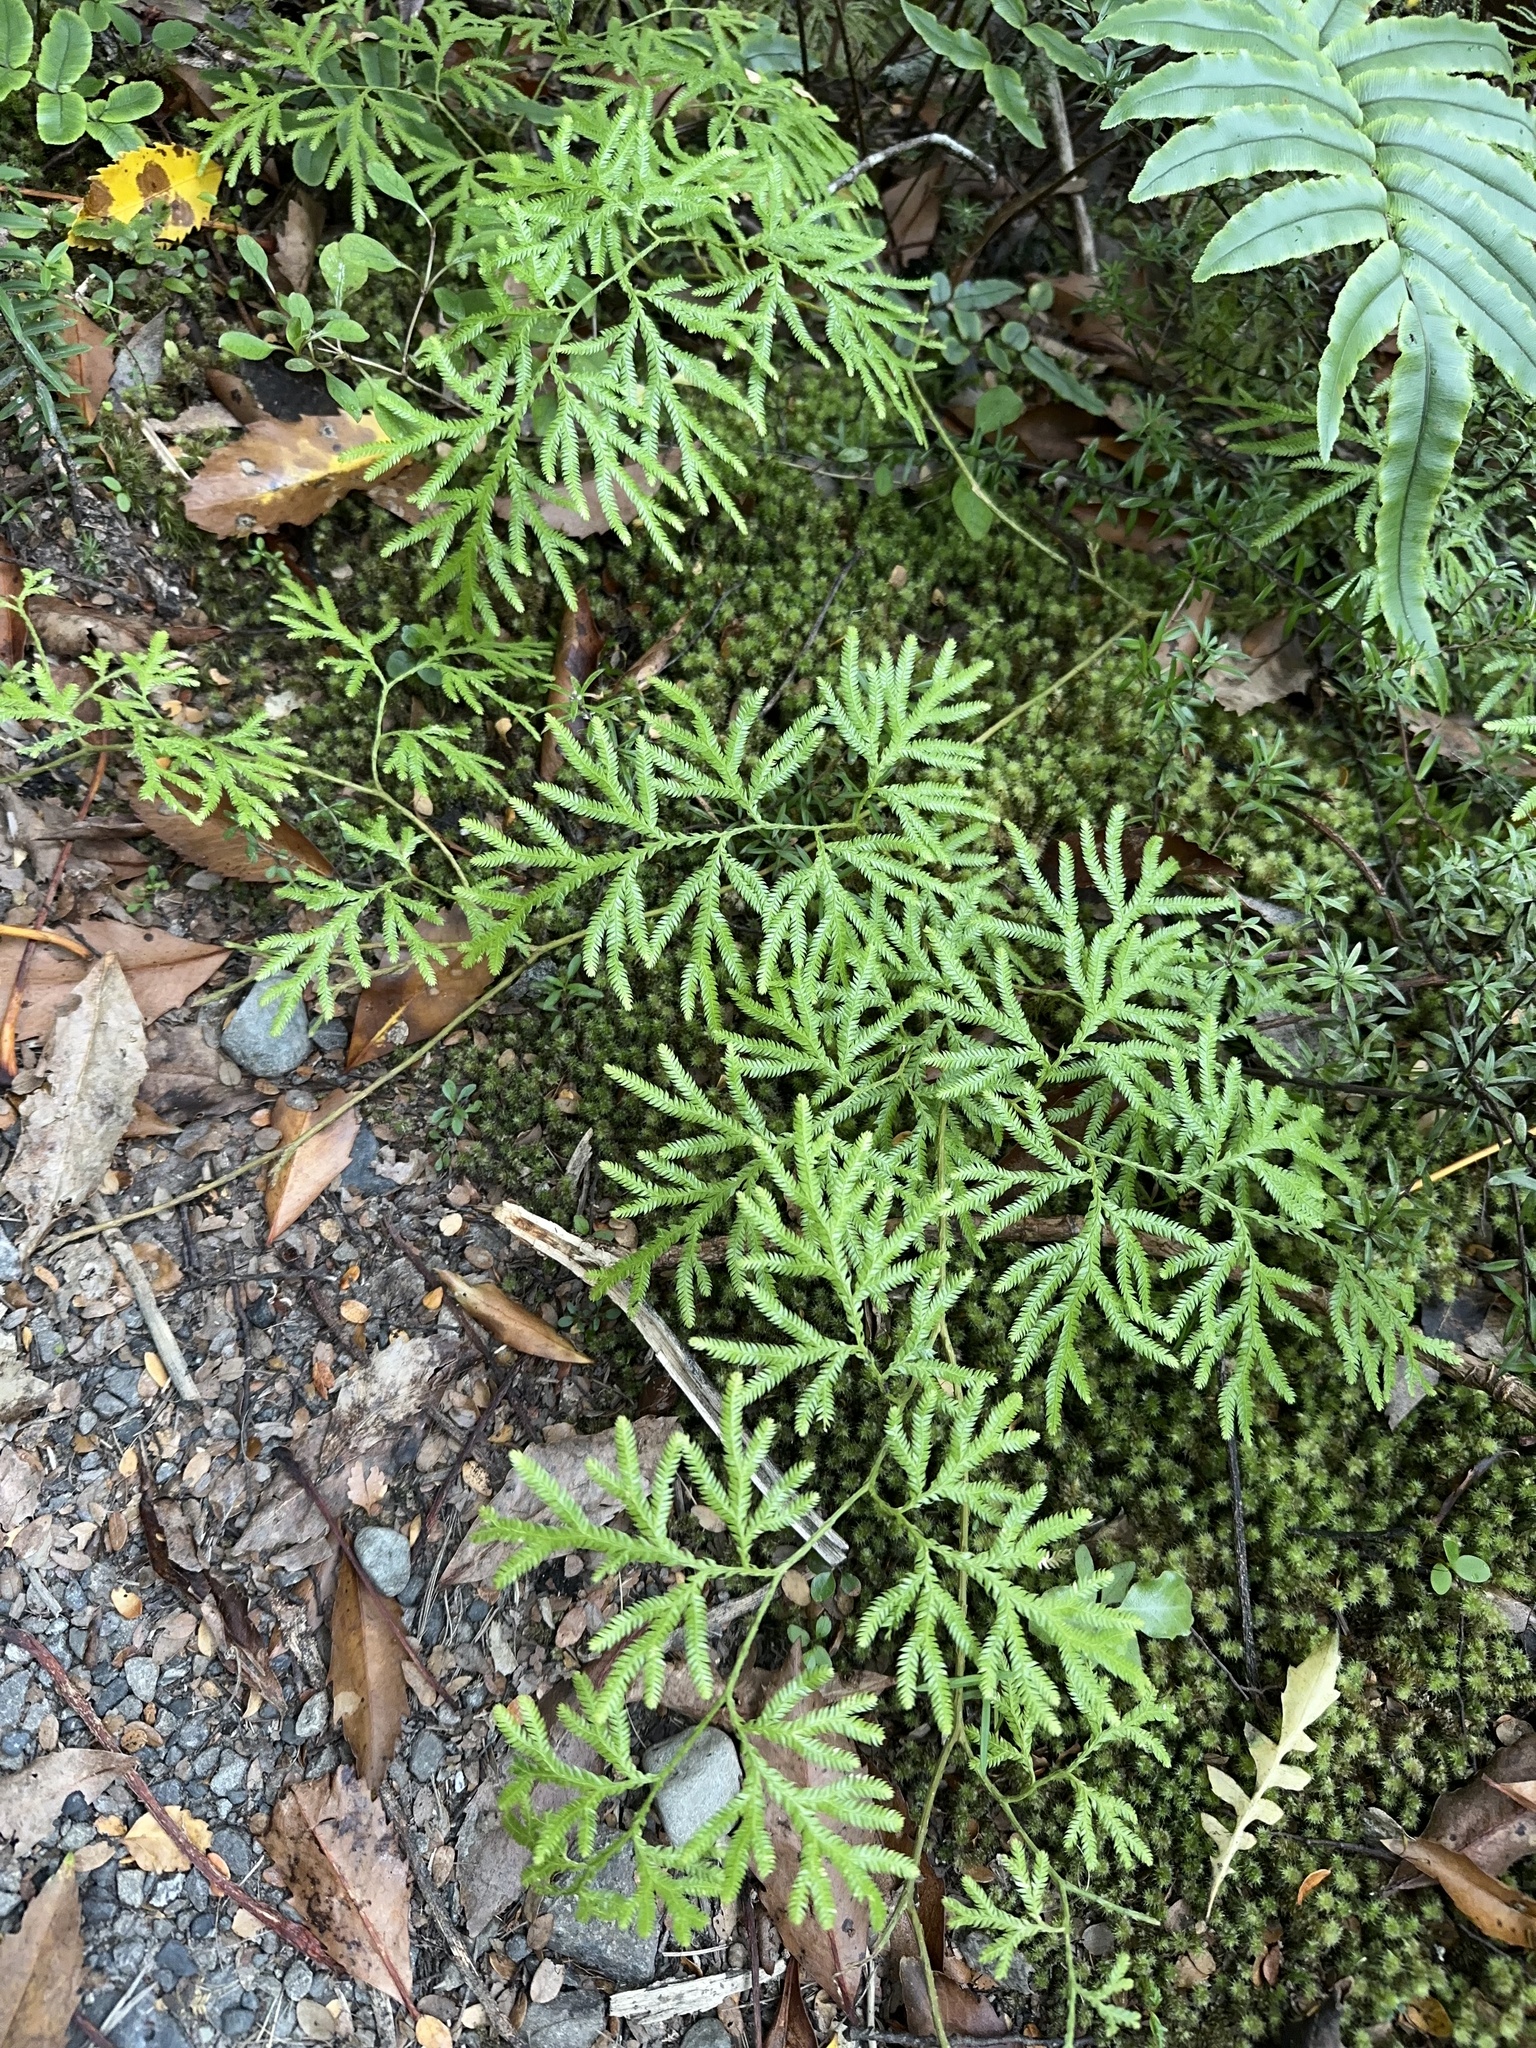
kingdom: Plantae
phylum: Tracheophyta
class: Lycopodiopsida
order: Lycopodiales
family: Lycopodiaceae
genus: Lycopodium
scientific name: Lycopodium volubile
